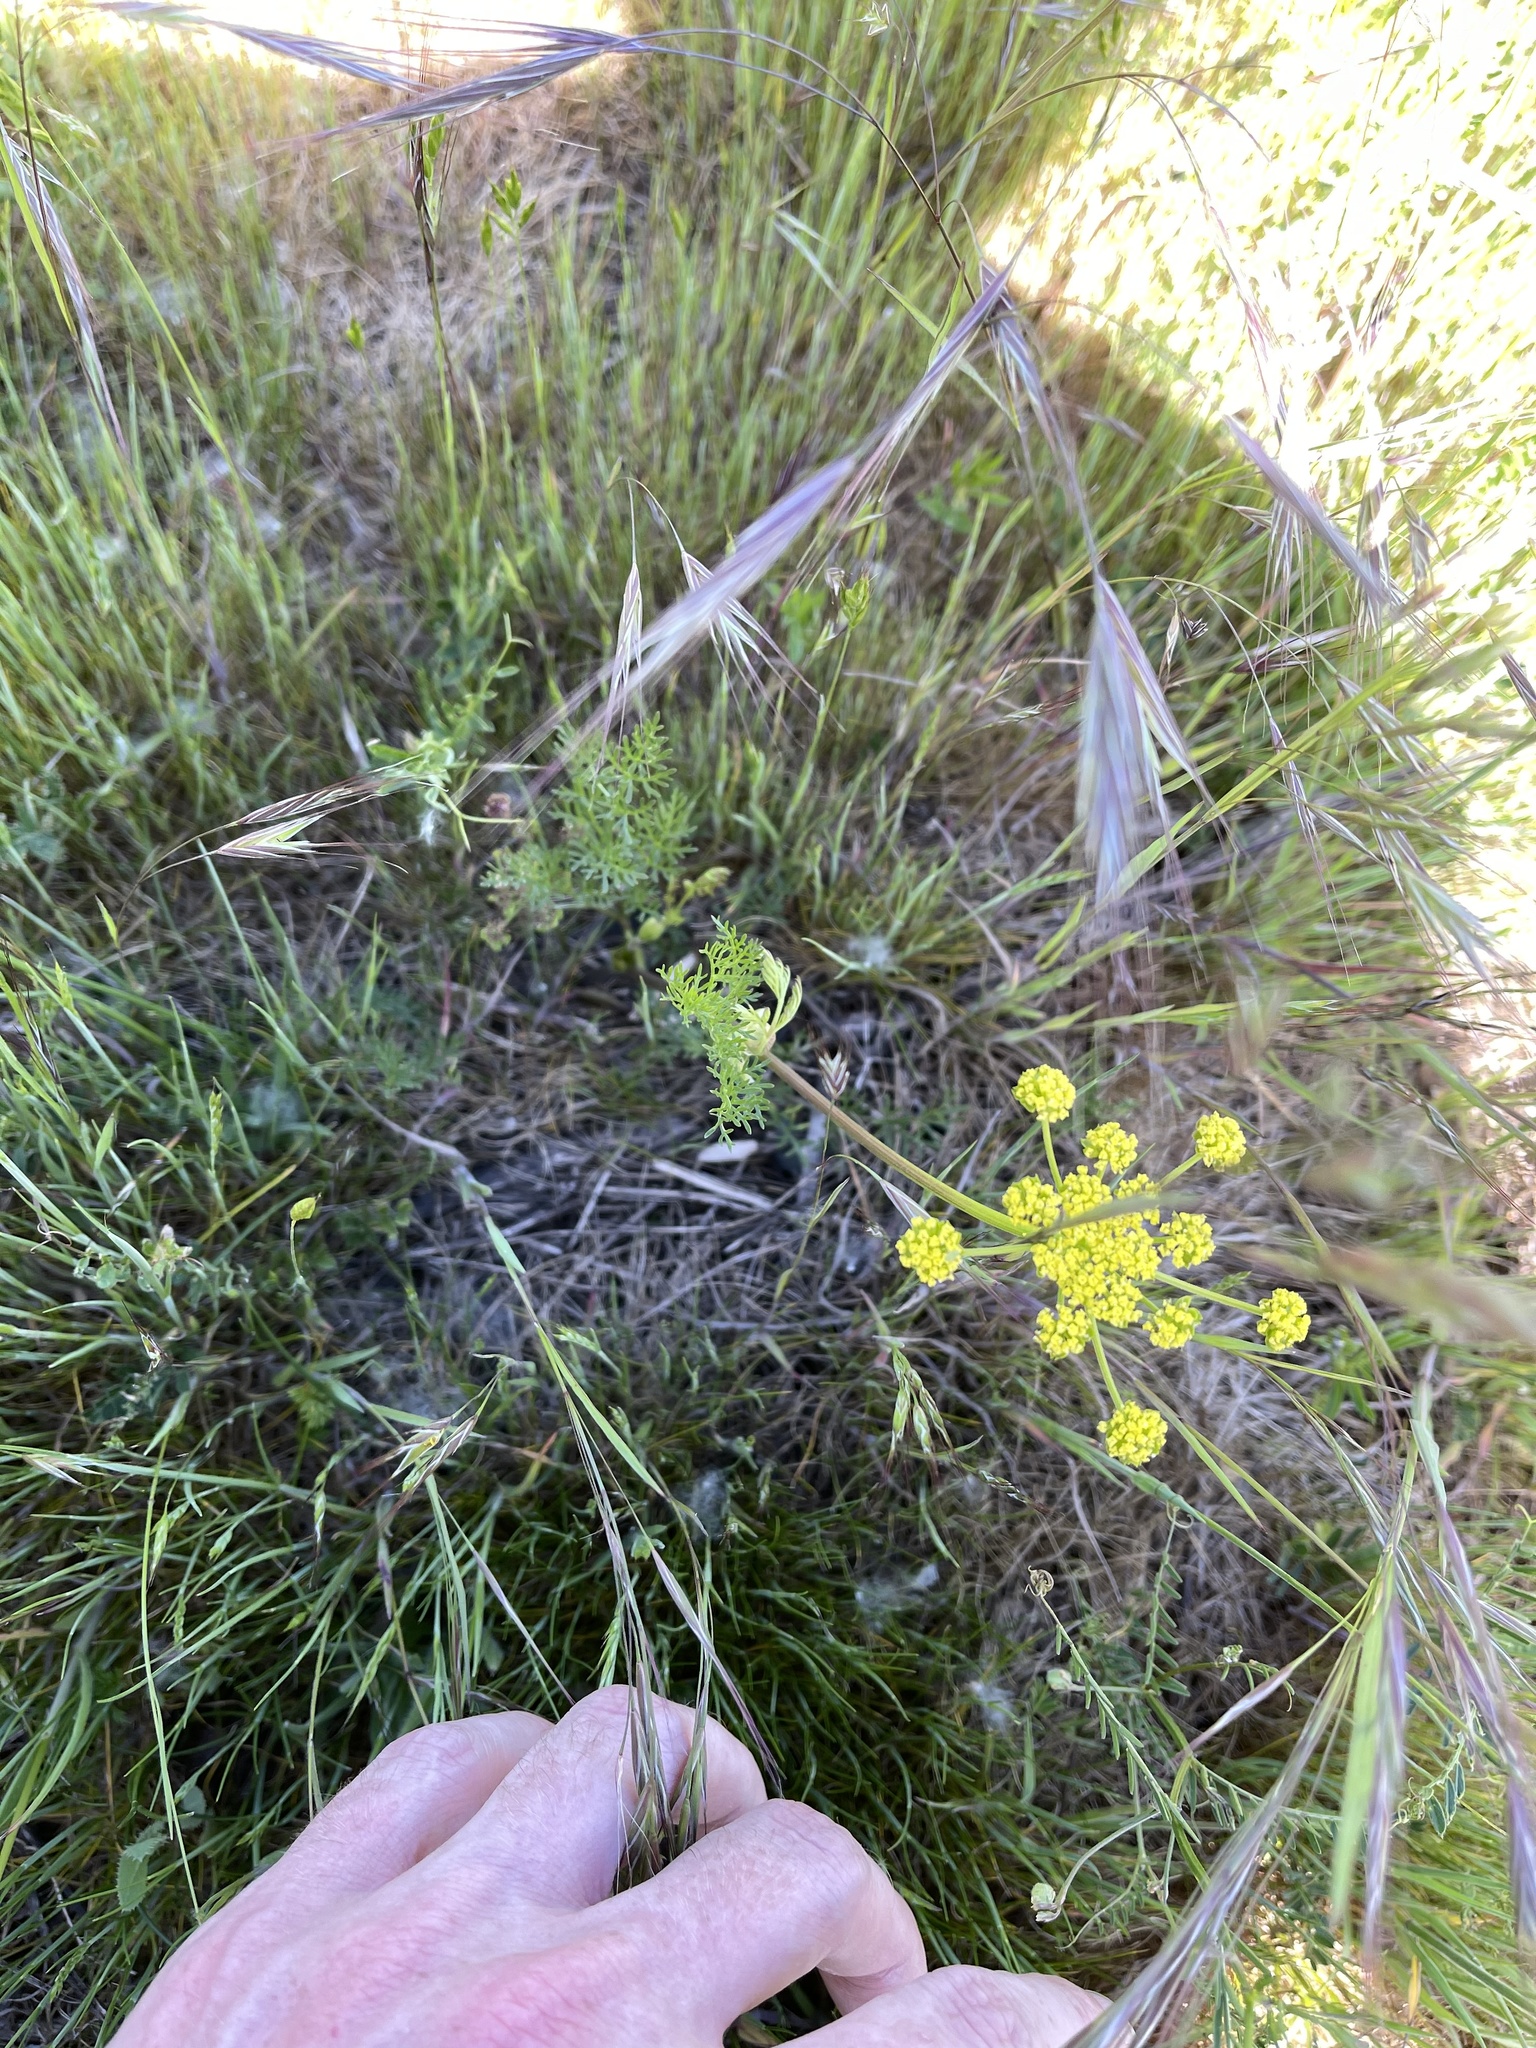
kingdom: Plantae
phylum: Tracheophyta
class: Magnoliopsida
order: Apiales
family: Apiaceae
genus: Lomatium
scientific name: Lomatium utriculatum
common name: Fine-leaf desert-parsley
